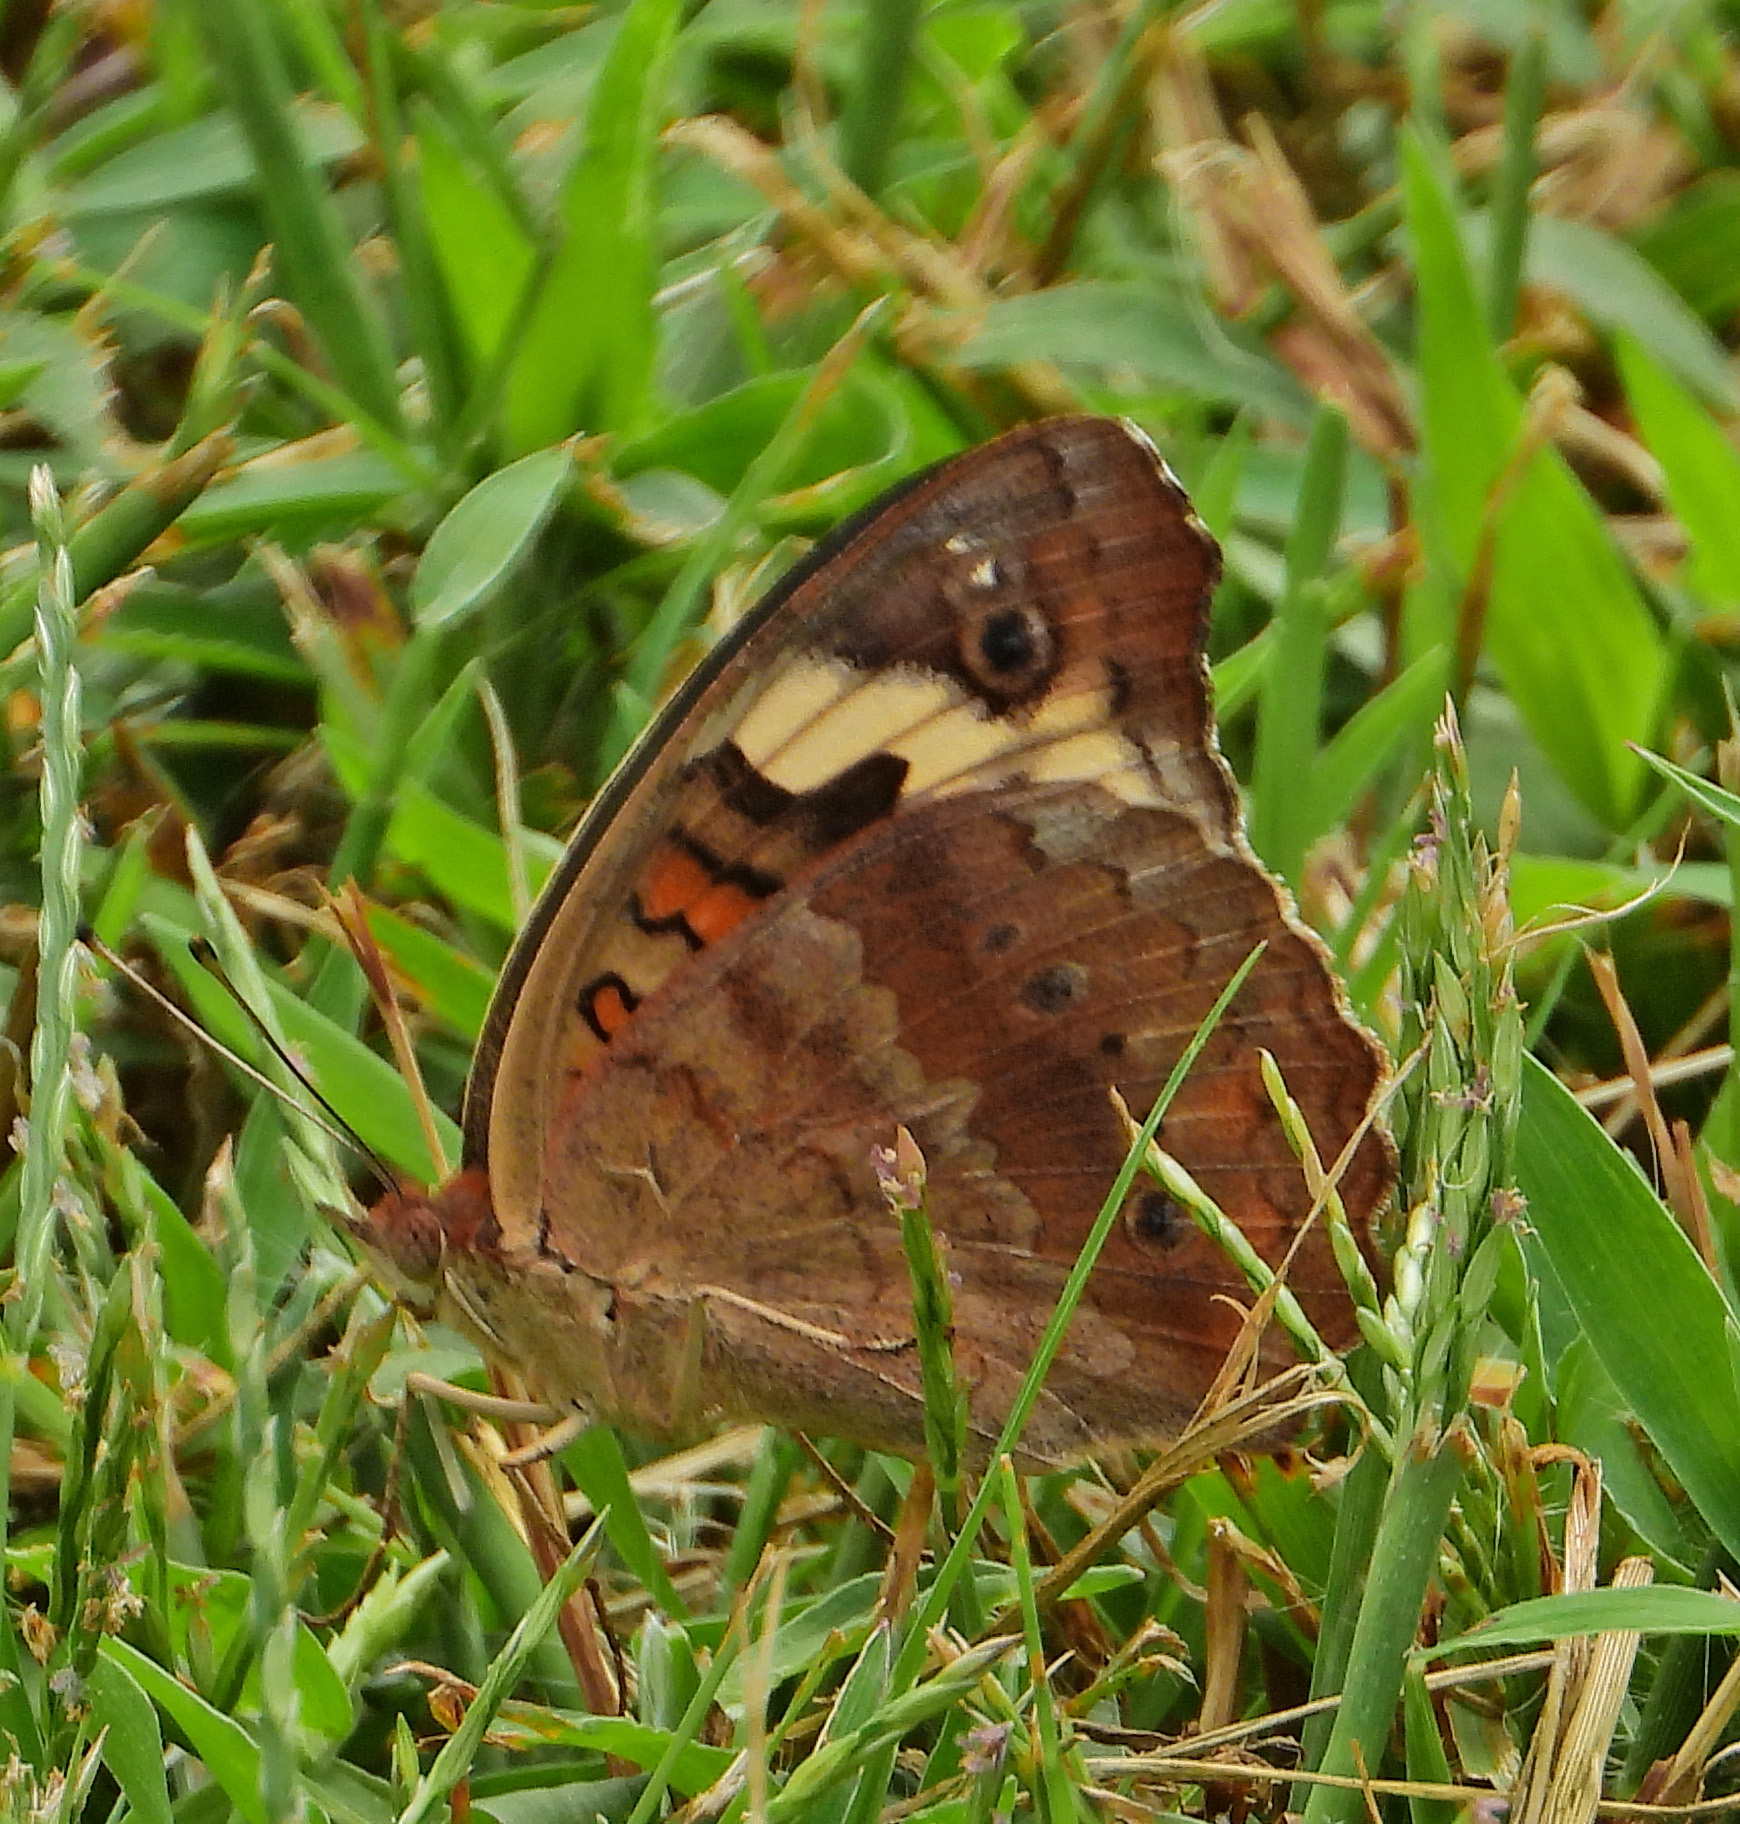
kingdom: Animalia
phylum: Arthropoda
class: Insecta
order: Lepidoptera
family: Nymphalidae
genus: Junonia
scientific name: Junonia coenia
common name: Common buckeye
